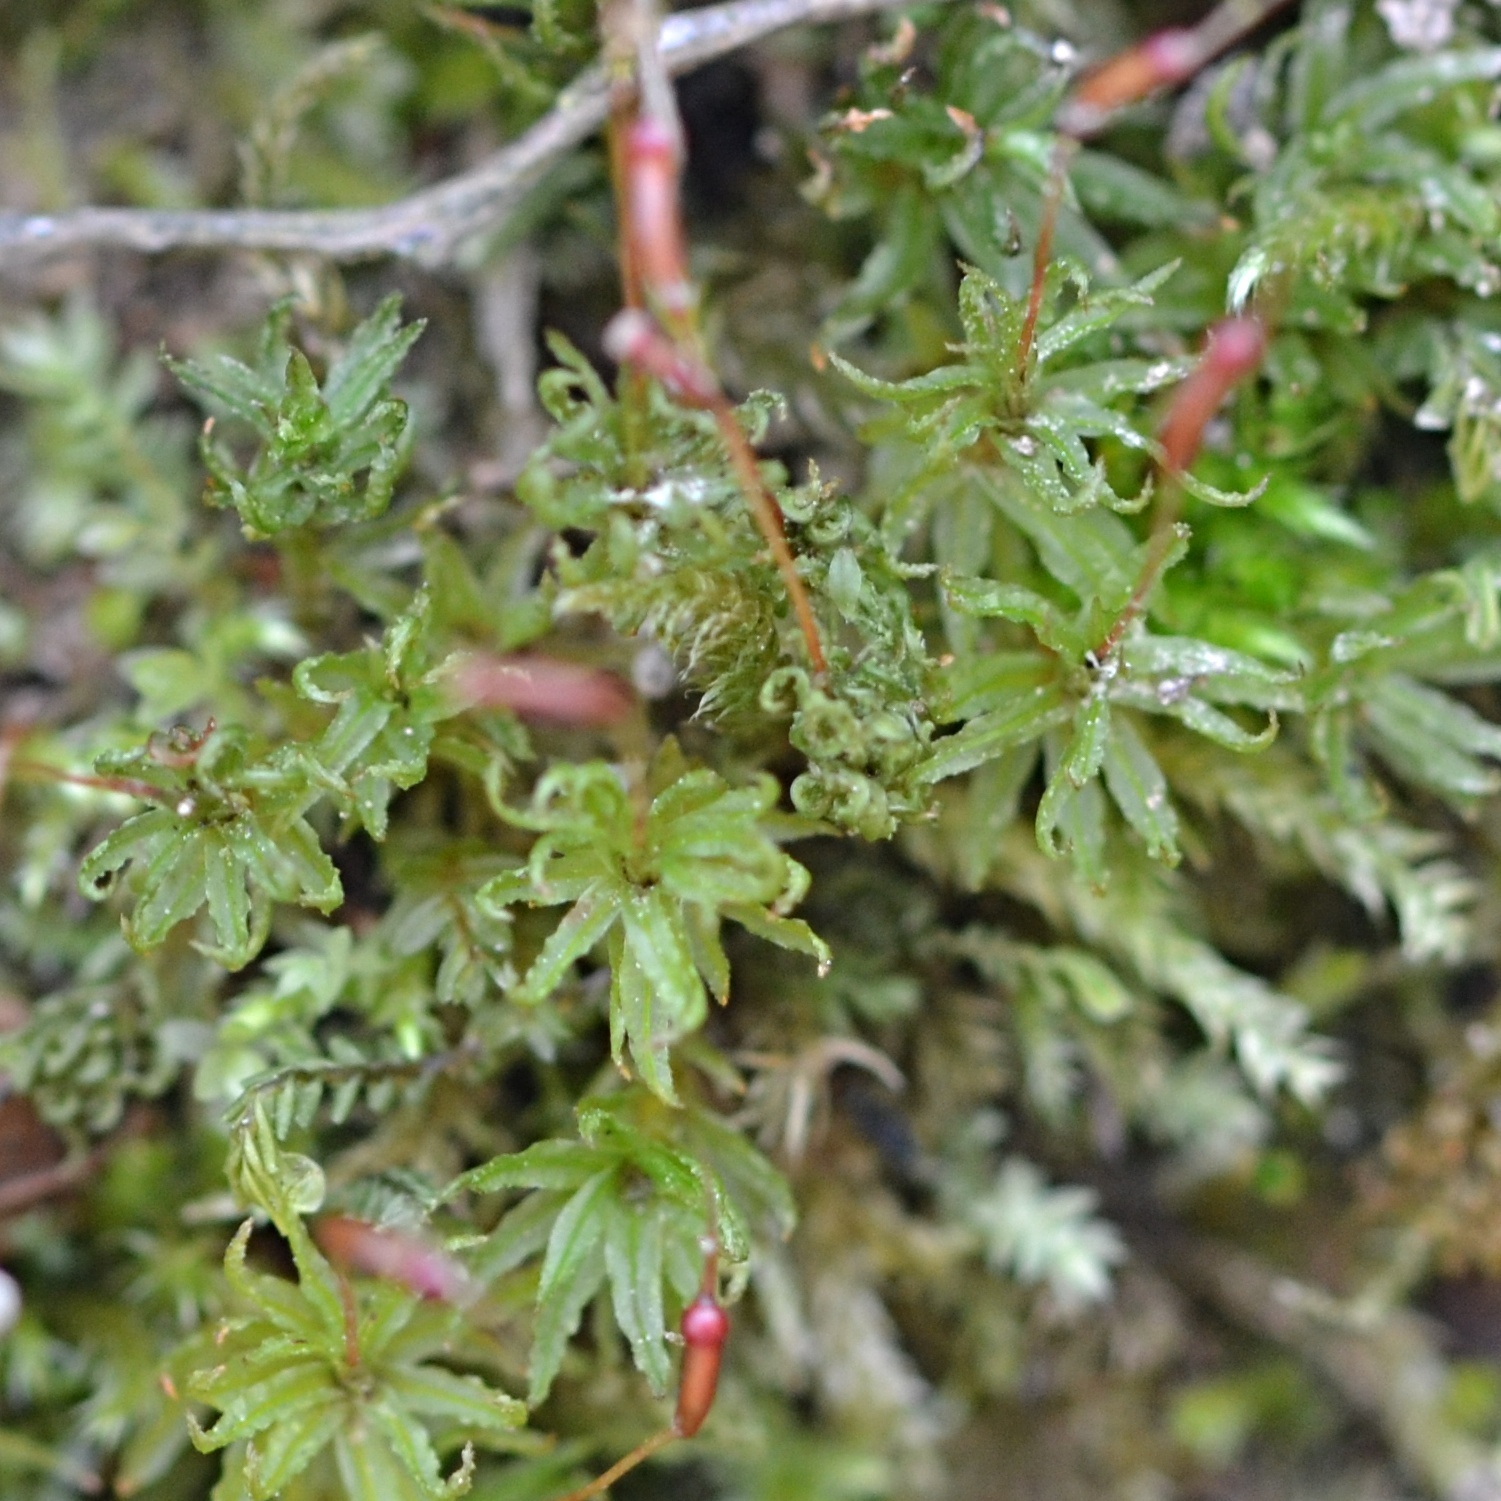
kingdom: Plantae
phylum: Bryophyta
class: Polytrichopsida
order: Polytrichales
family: Polytrichaceae
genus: Atrichum
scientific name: Atrichum undulatum
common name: Common smoothcap
